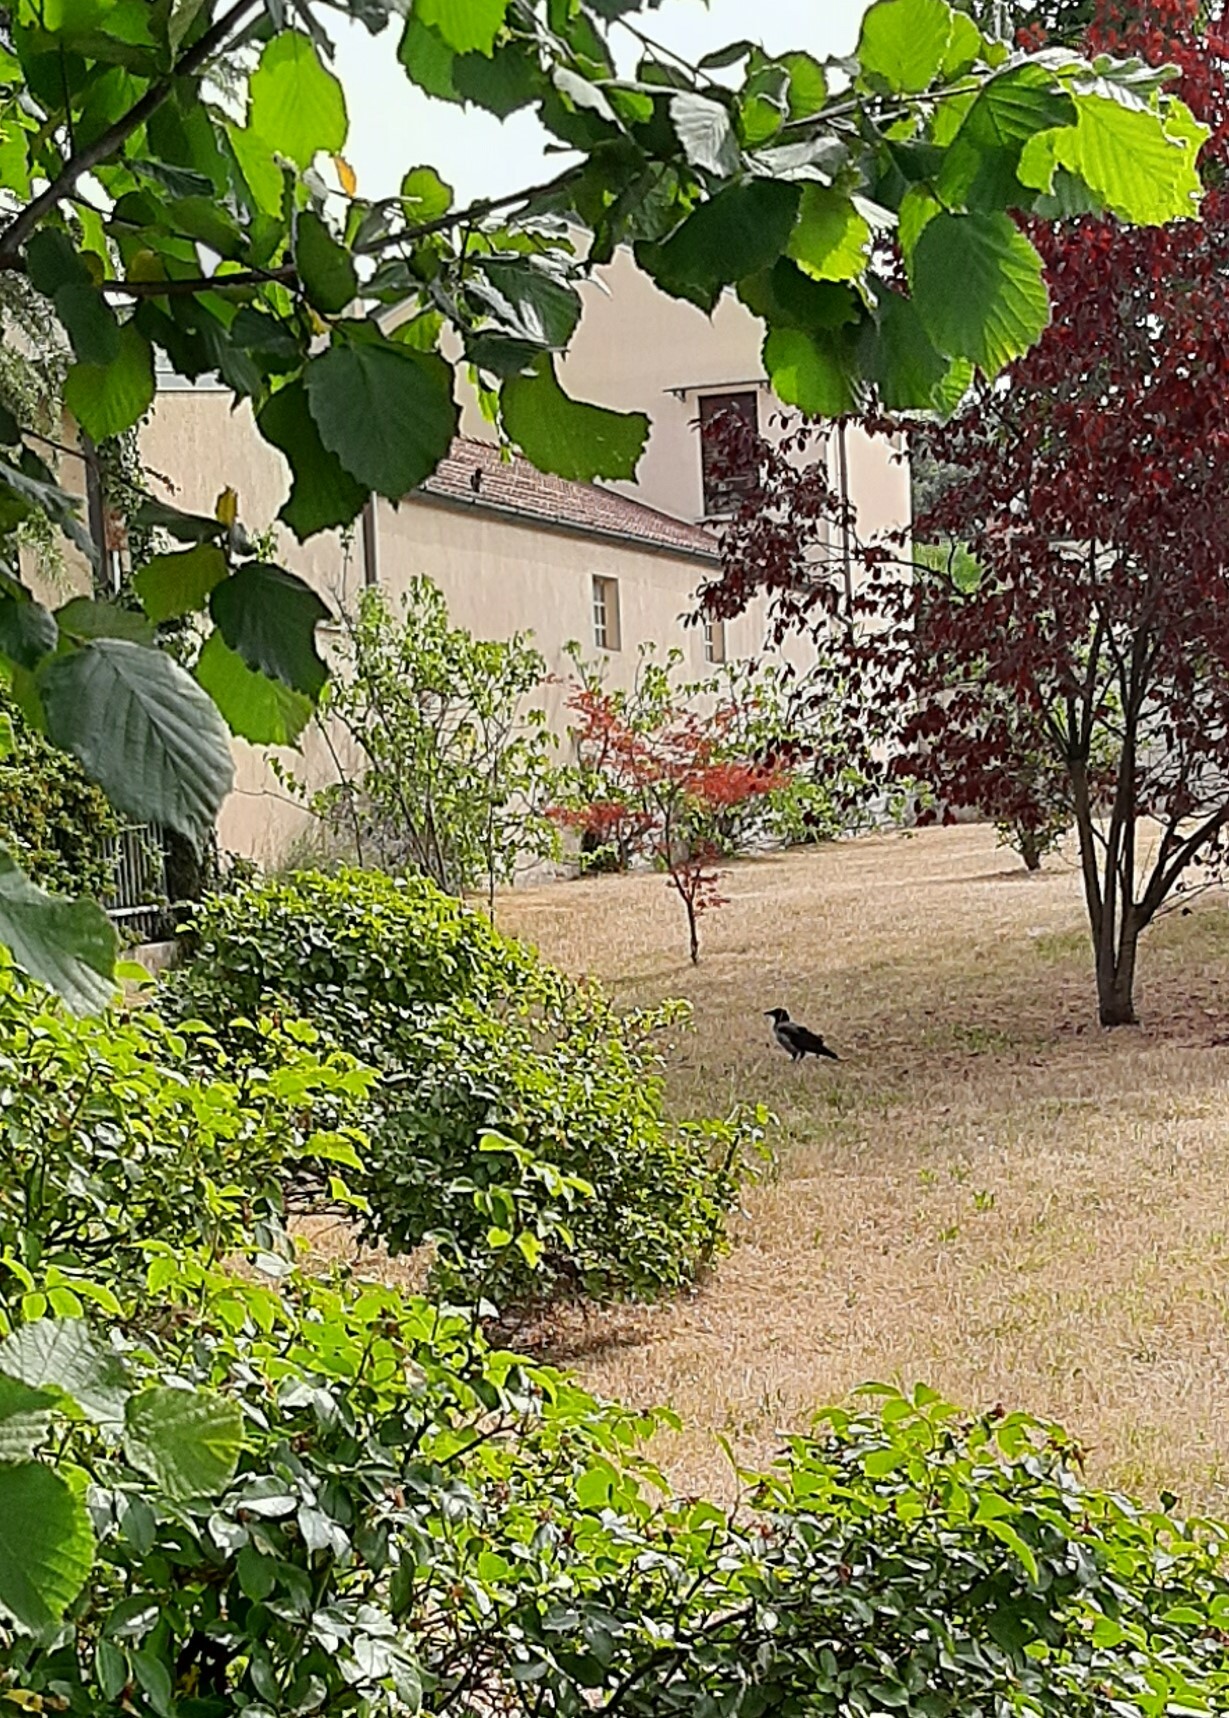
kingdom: Animalia
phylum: Chordata
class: Aves
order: Passeriformes
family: Corvidae
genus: Corvus
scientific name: Corvus cornix
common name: Hooded crow
